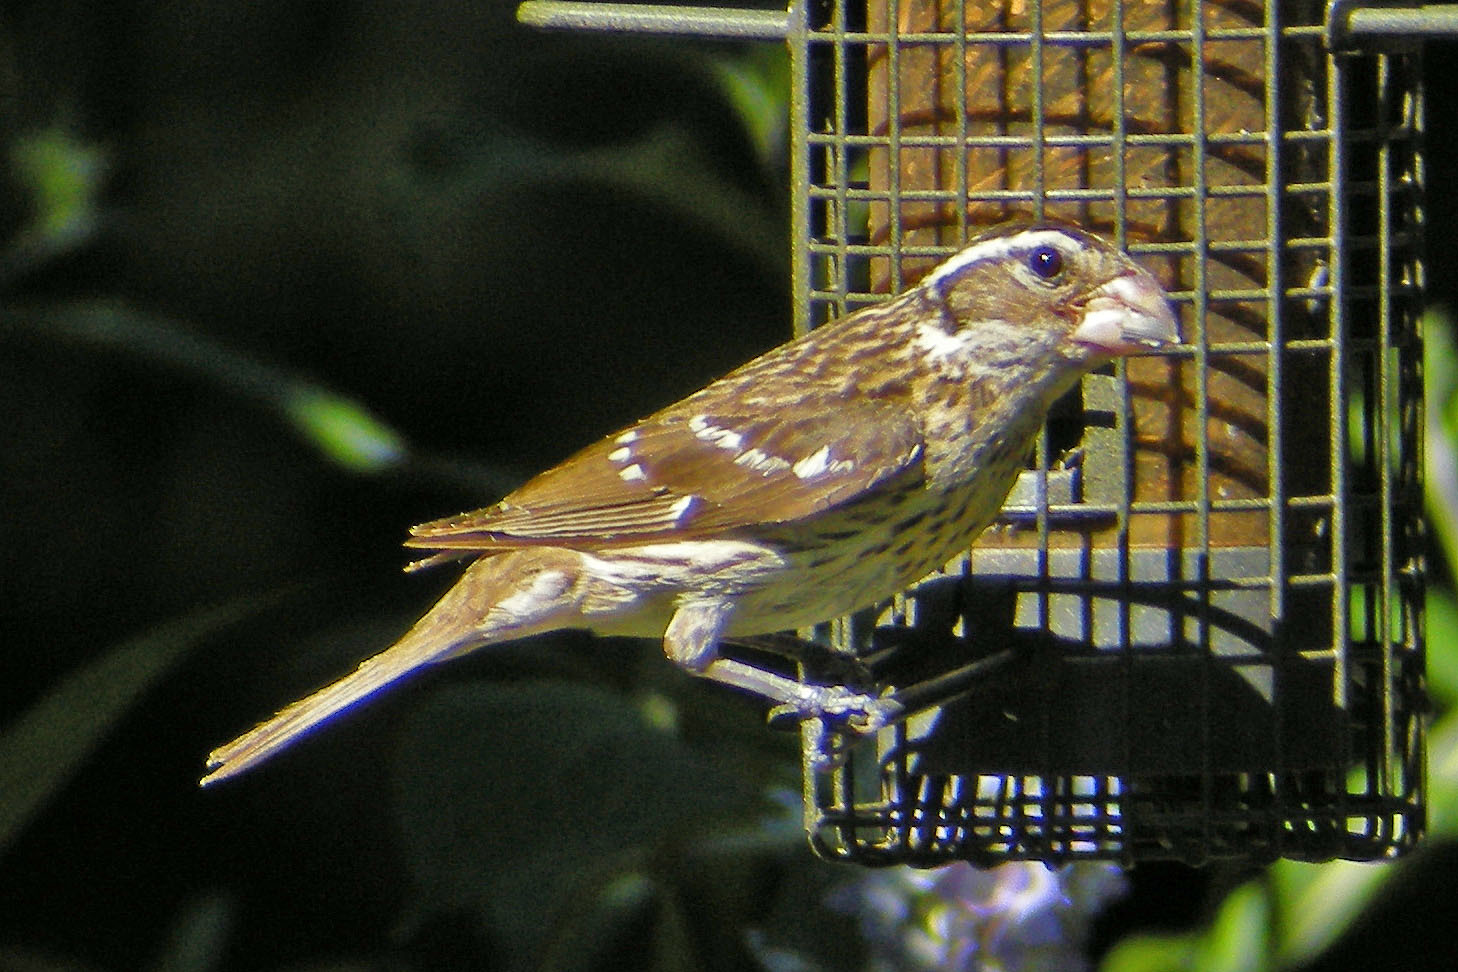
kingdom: Animalia
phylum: Chordata
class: Aves
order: Passeriformes
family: Cardinalidae
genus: Pheucticus
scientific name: Pheucticus ludovicianus
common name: Rose-breasted grosbeak
